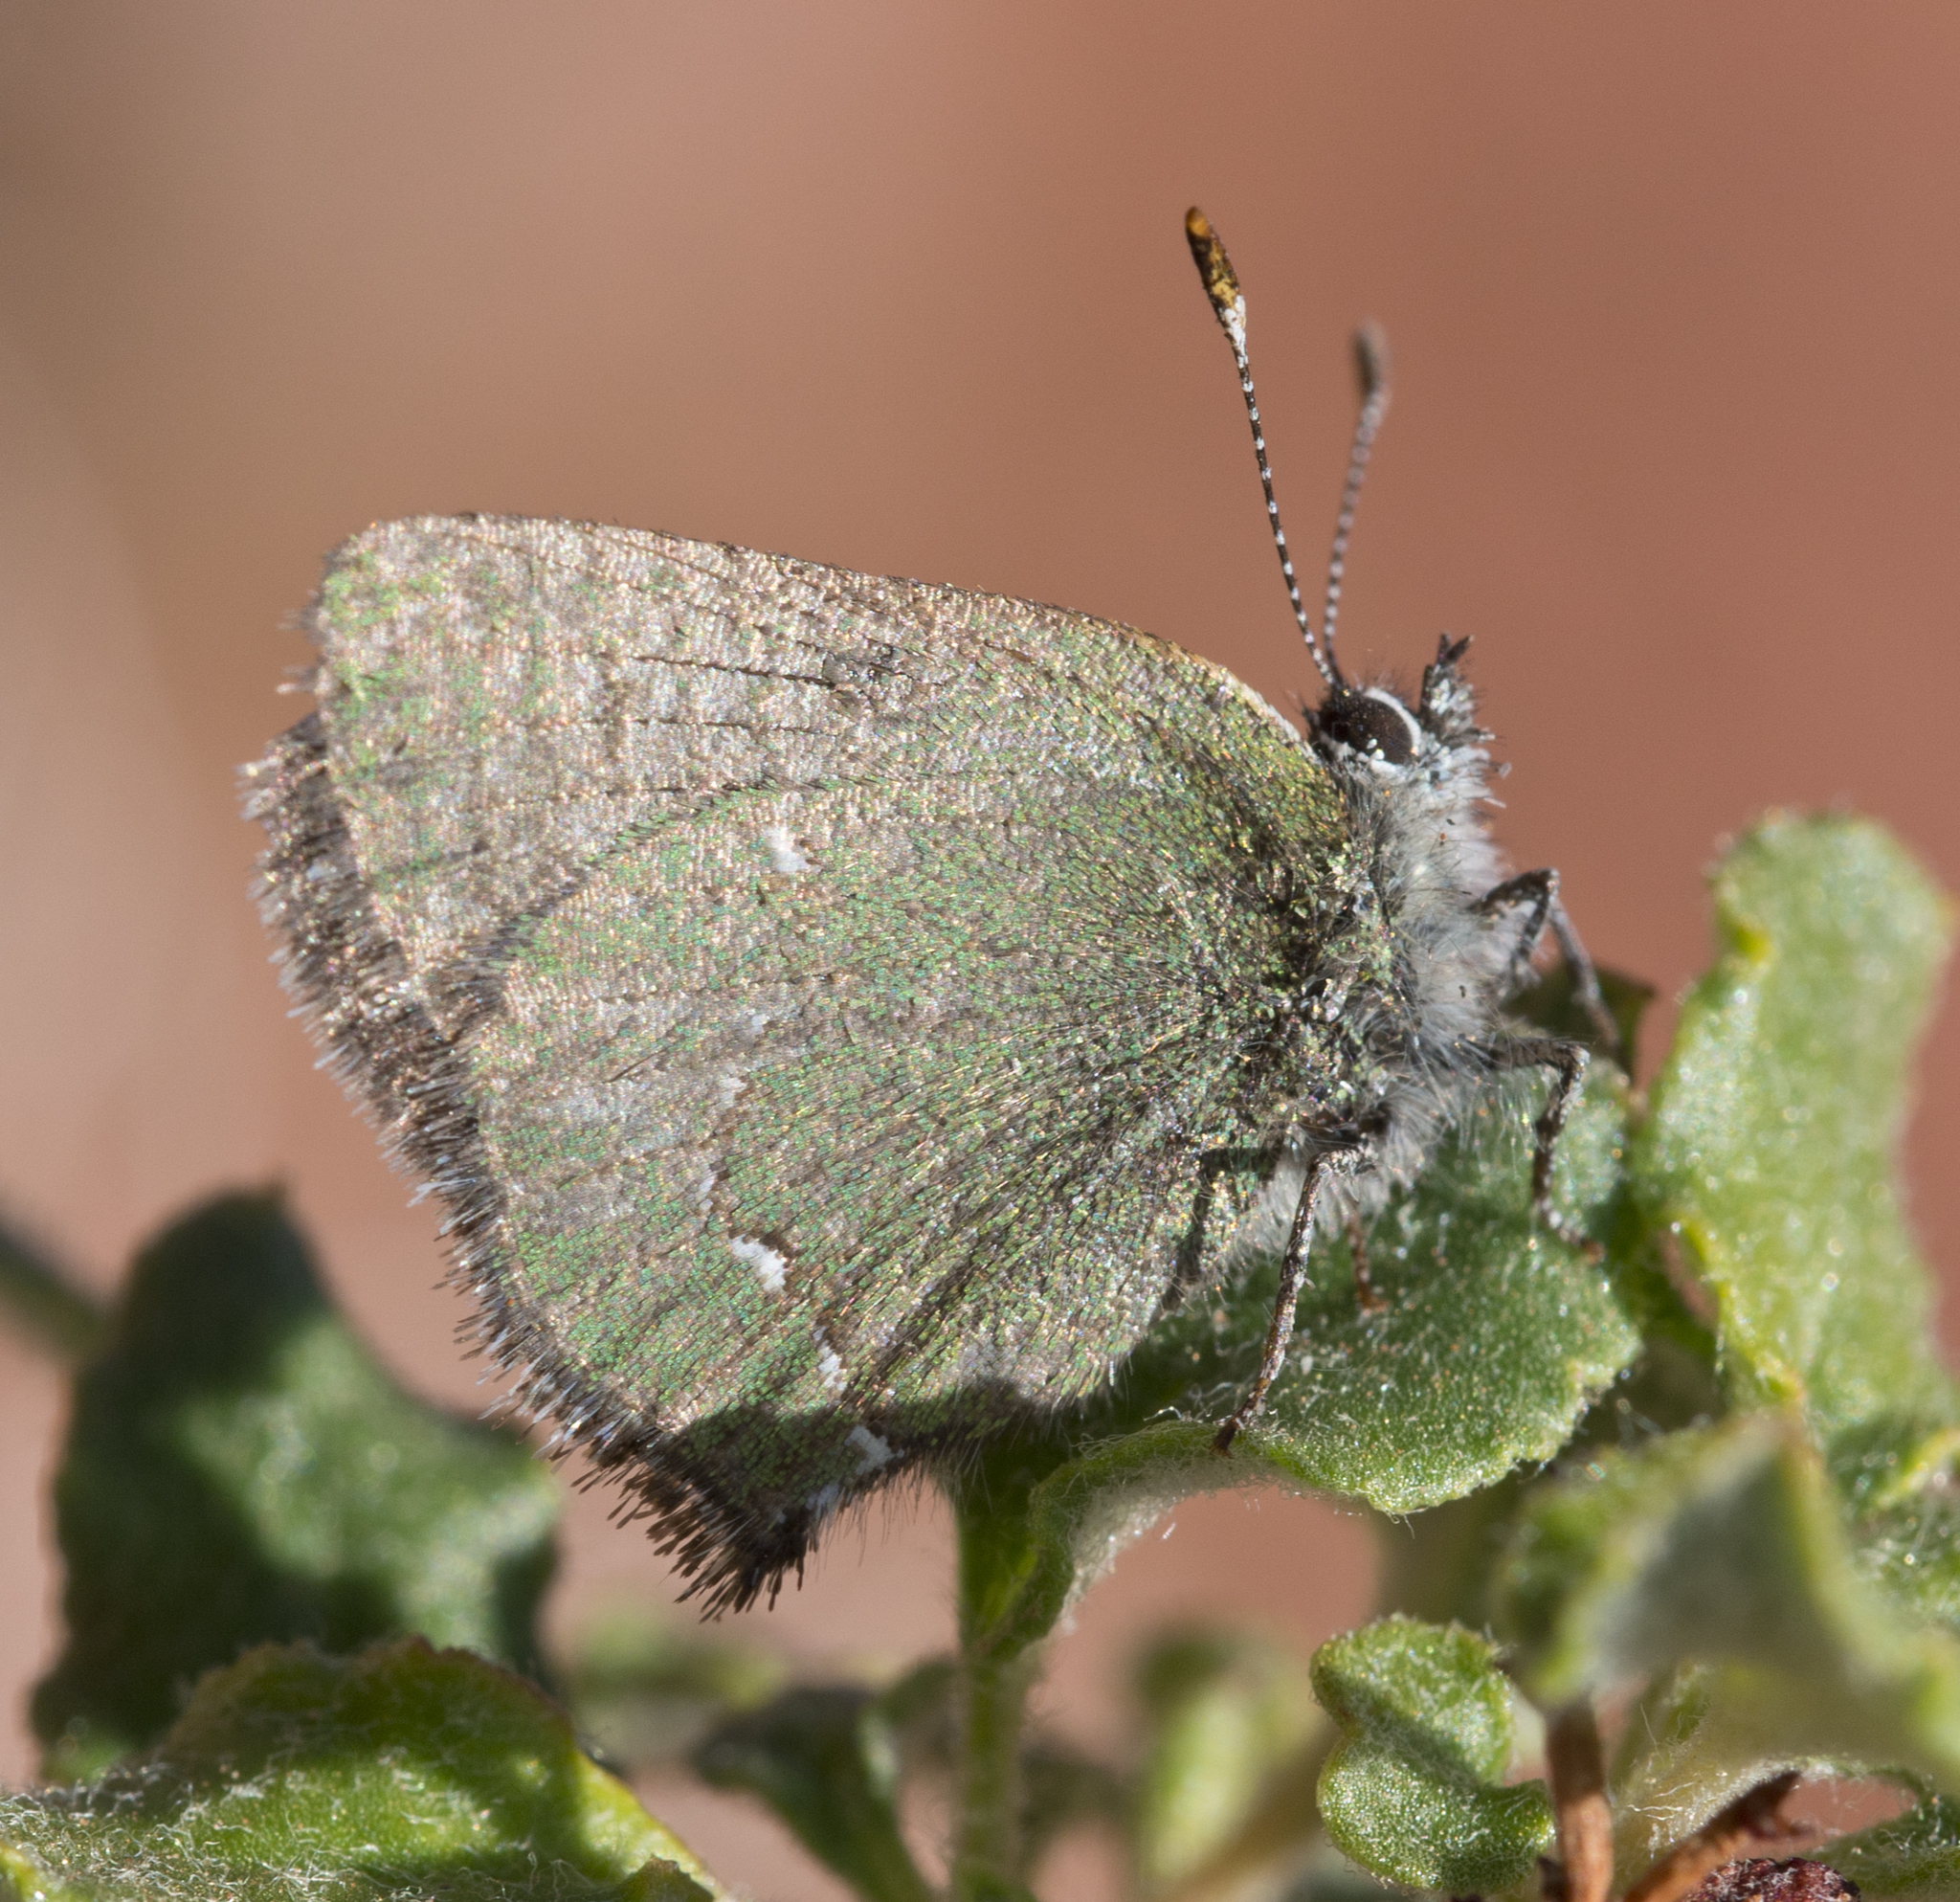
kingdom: Animalia
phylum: Arthropoda
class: Insecta
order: Lepidoptera
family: Lycaenidae
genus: Thecla
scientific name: Thecla sheridanii
